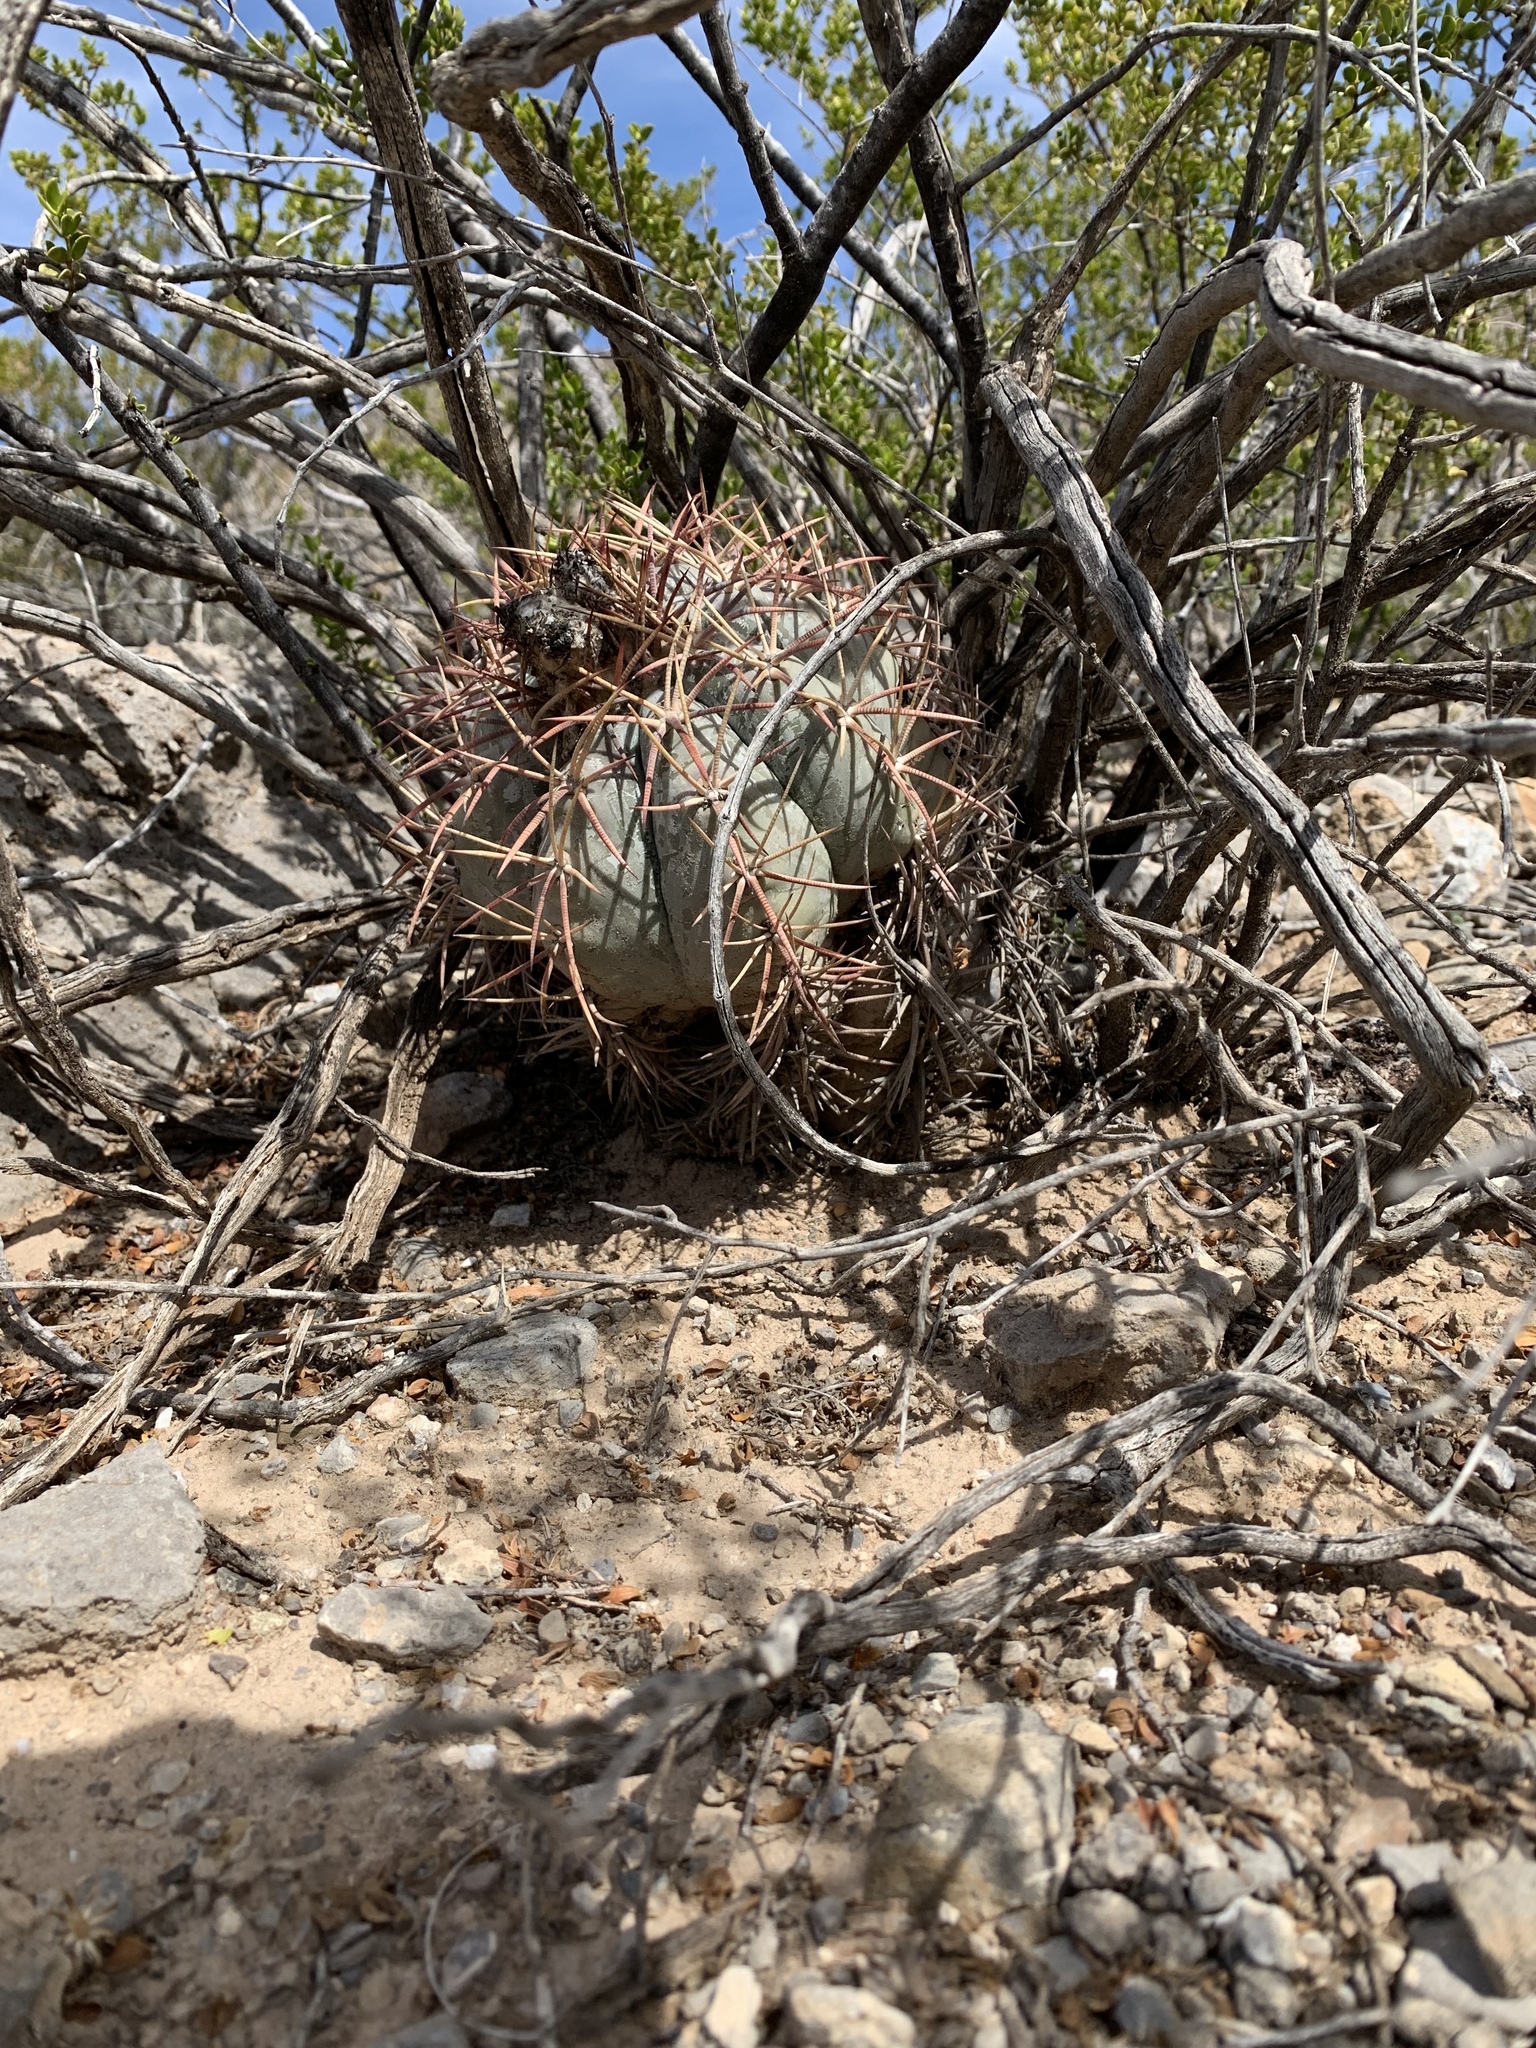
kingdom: Plantae
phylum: Tracheophyta
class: Magnoliopsida
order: Caryophyllales
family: Cactaceae
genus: Echinocactus
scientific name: Echinocactus horizonthalonius
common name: Devilshead
